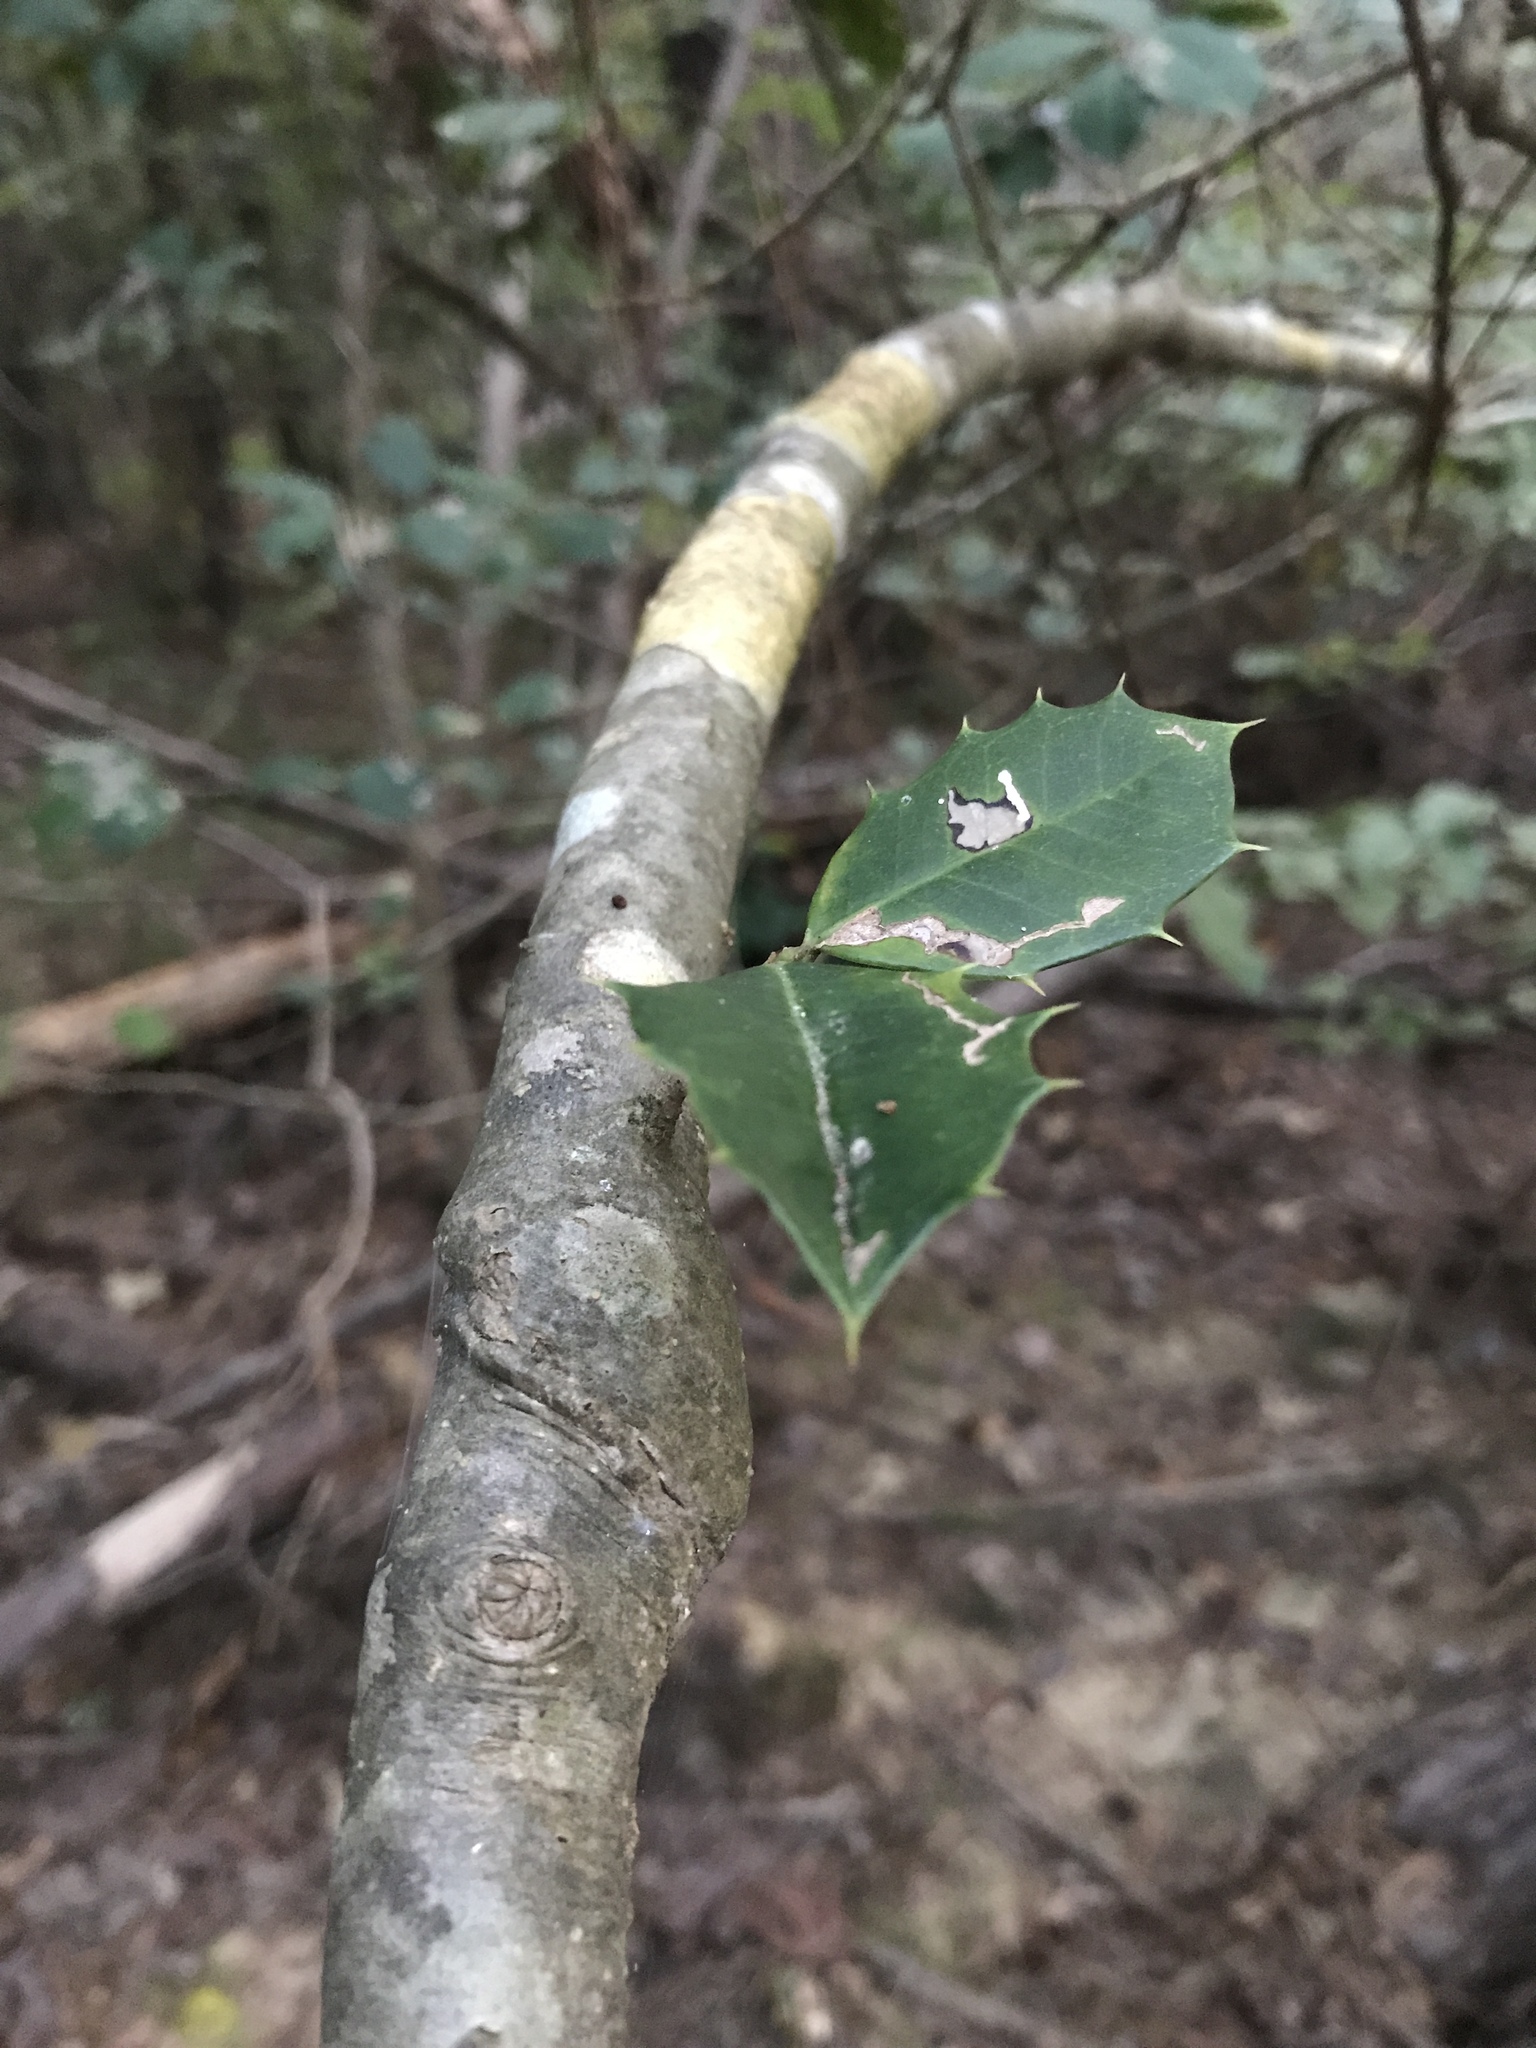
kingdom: Plantae
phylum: Tracheophyta
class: Magnoliopsida
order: Aquifoliales
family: Aquifoliaceae
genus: Ilex
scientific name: Ilex opaca
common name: American holly
